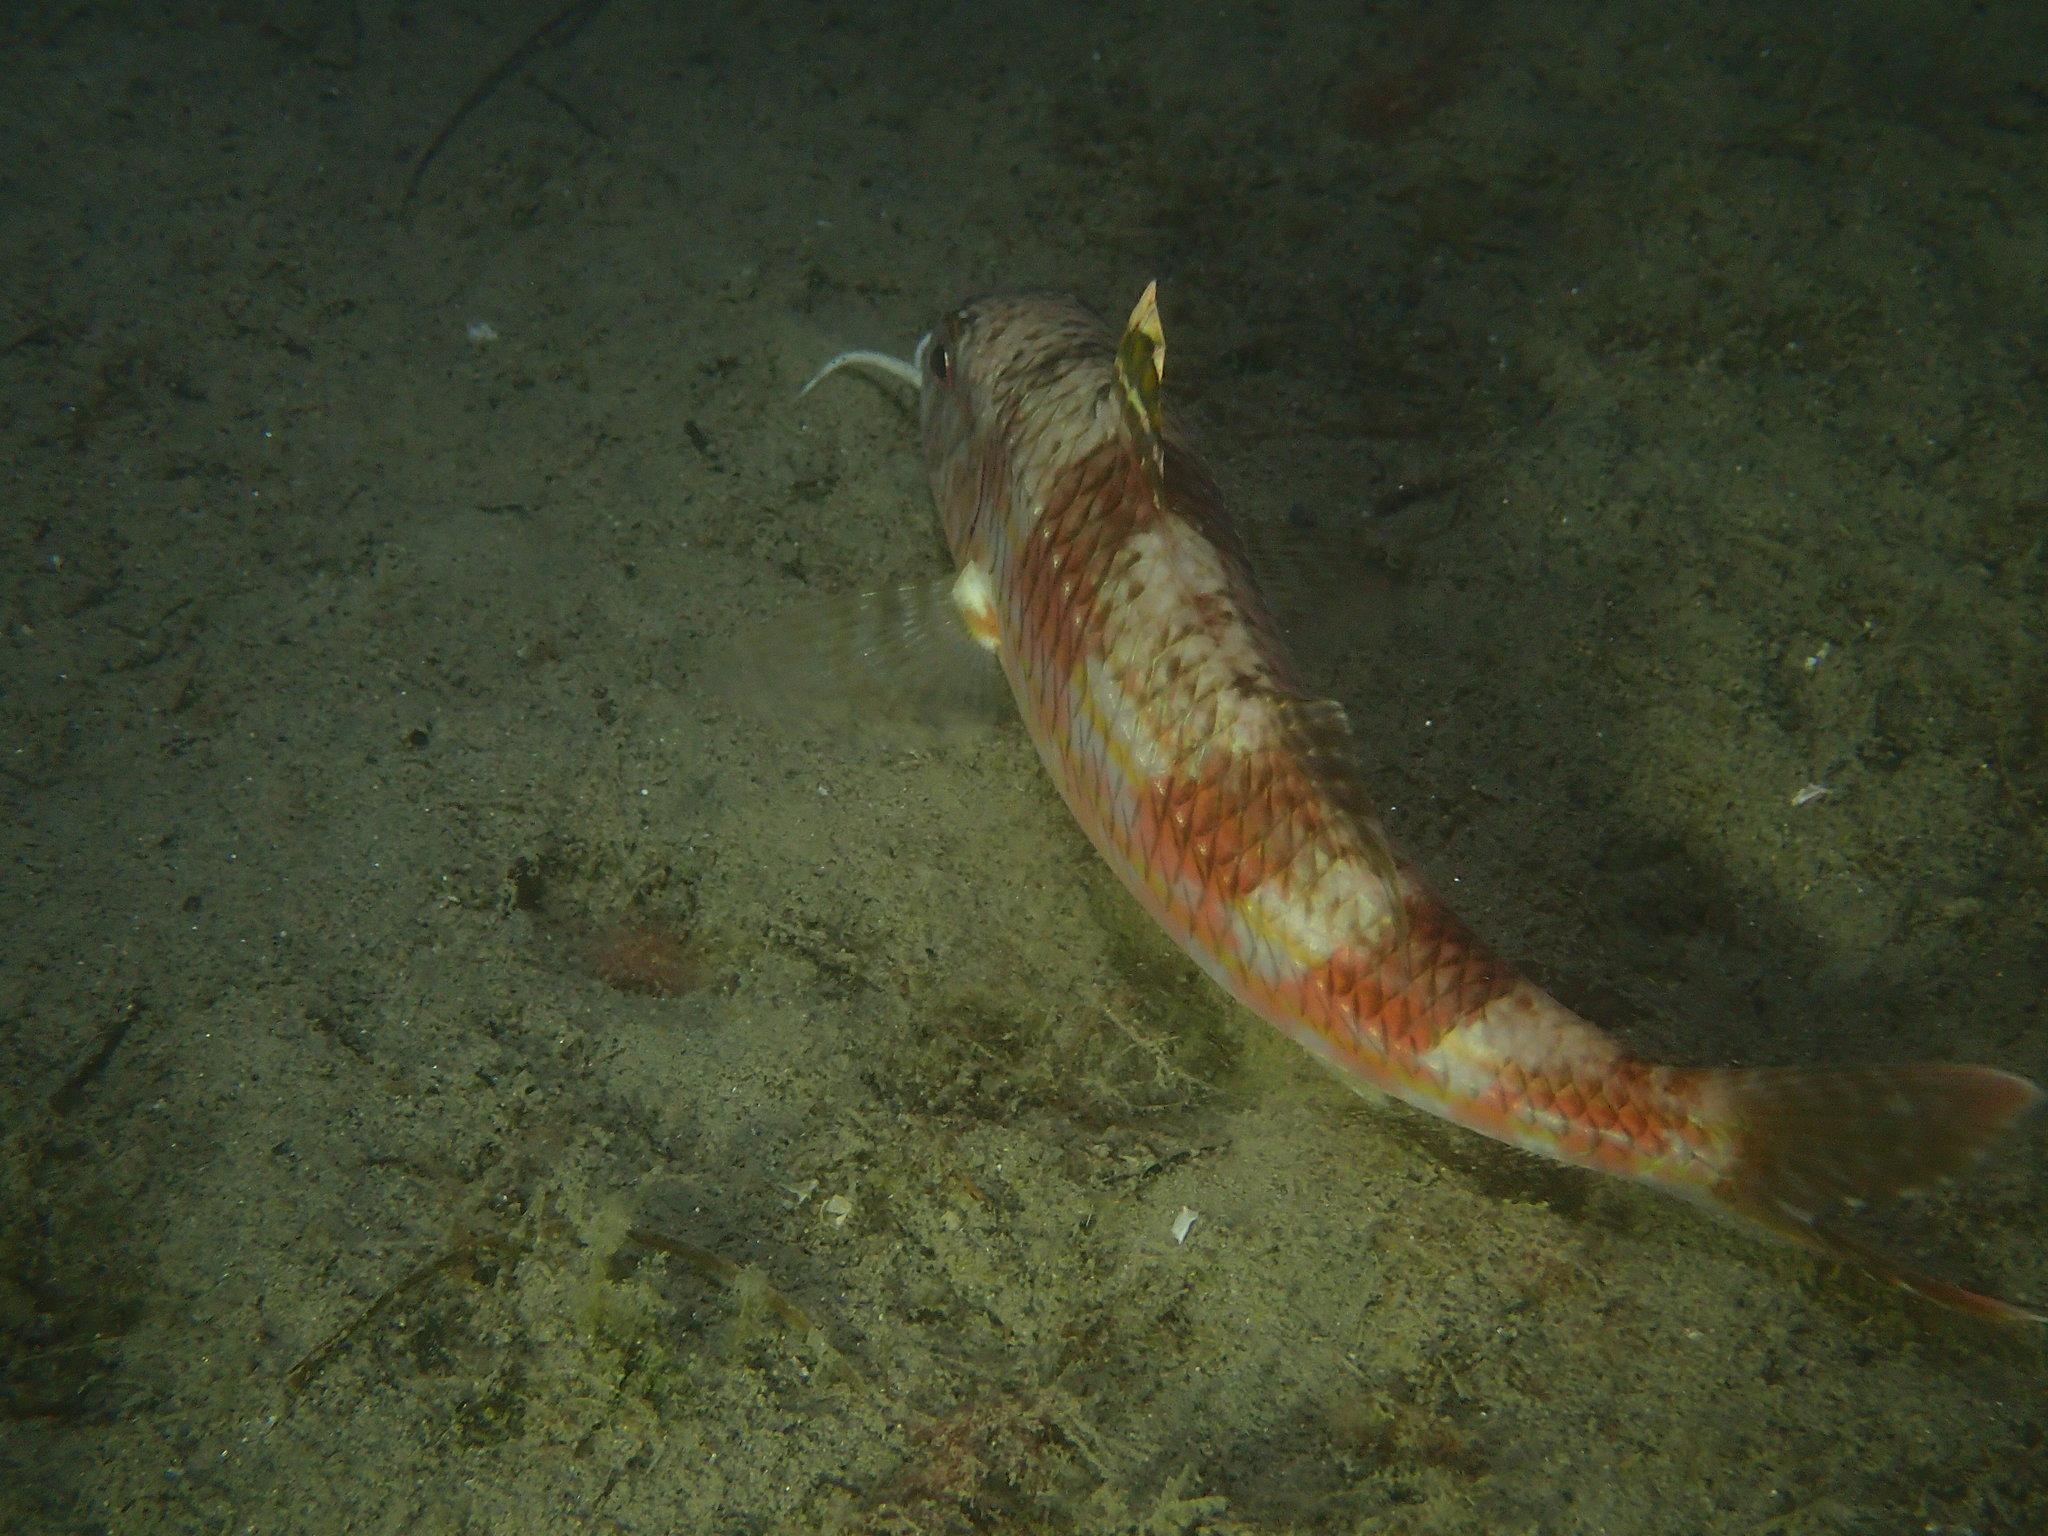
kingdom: Animalia
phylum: Chordata
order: Perciformes
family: Mullidae
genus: Mullus
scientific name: Mullus surmuletus
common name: Red mullet
